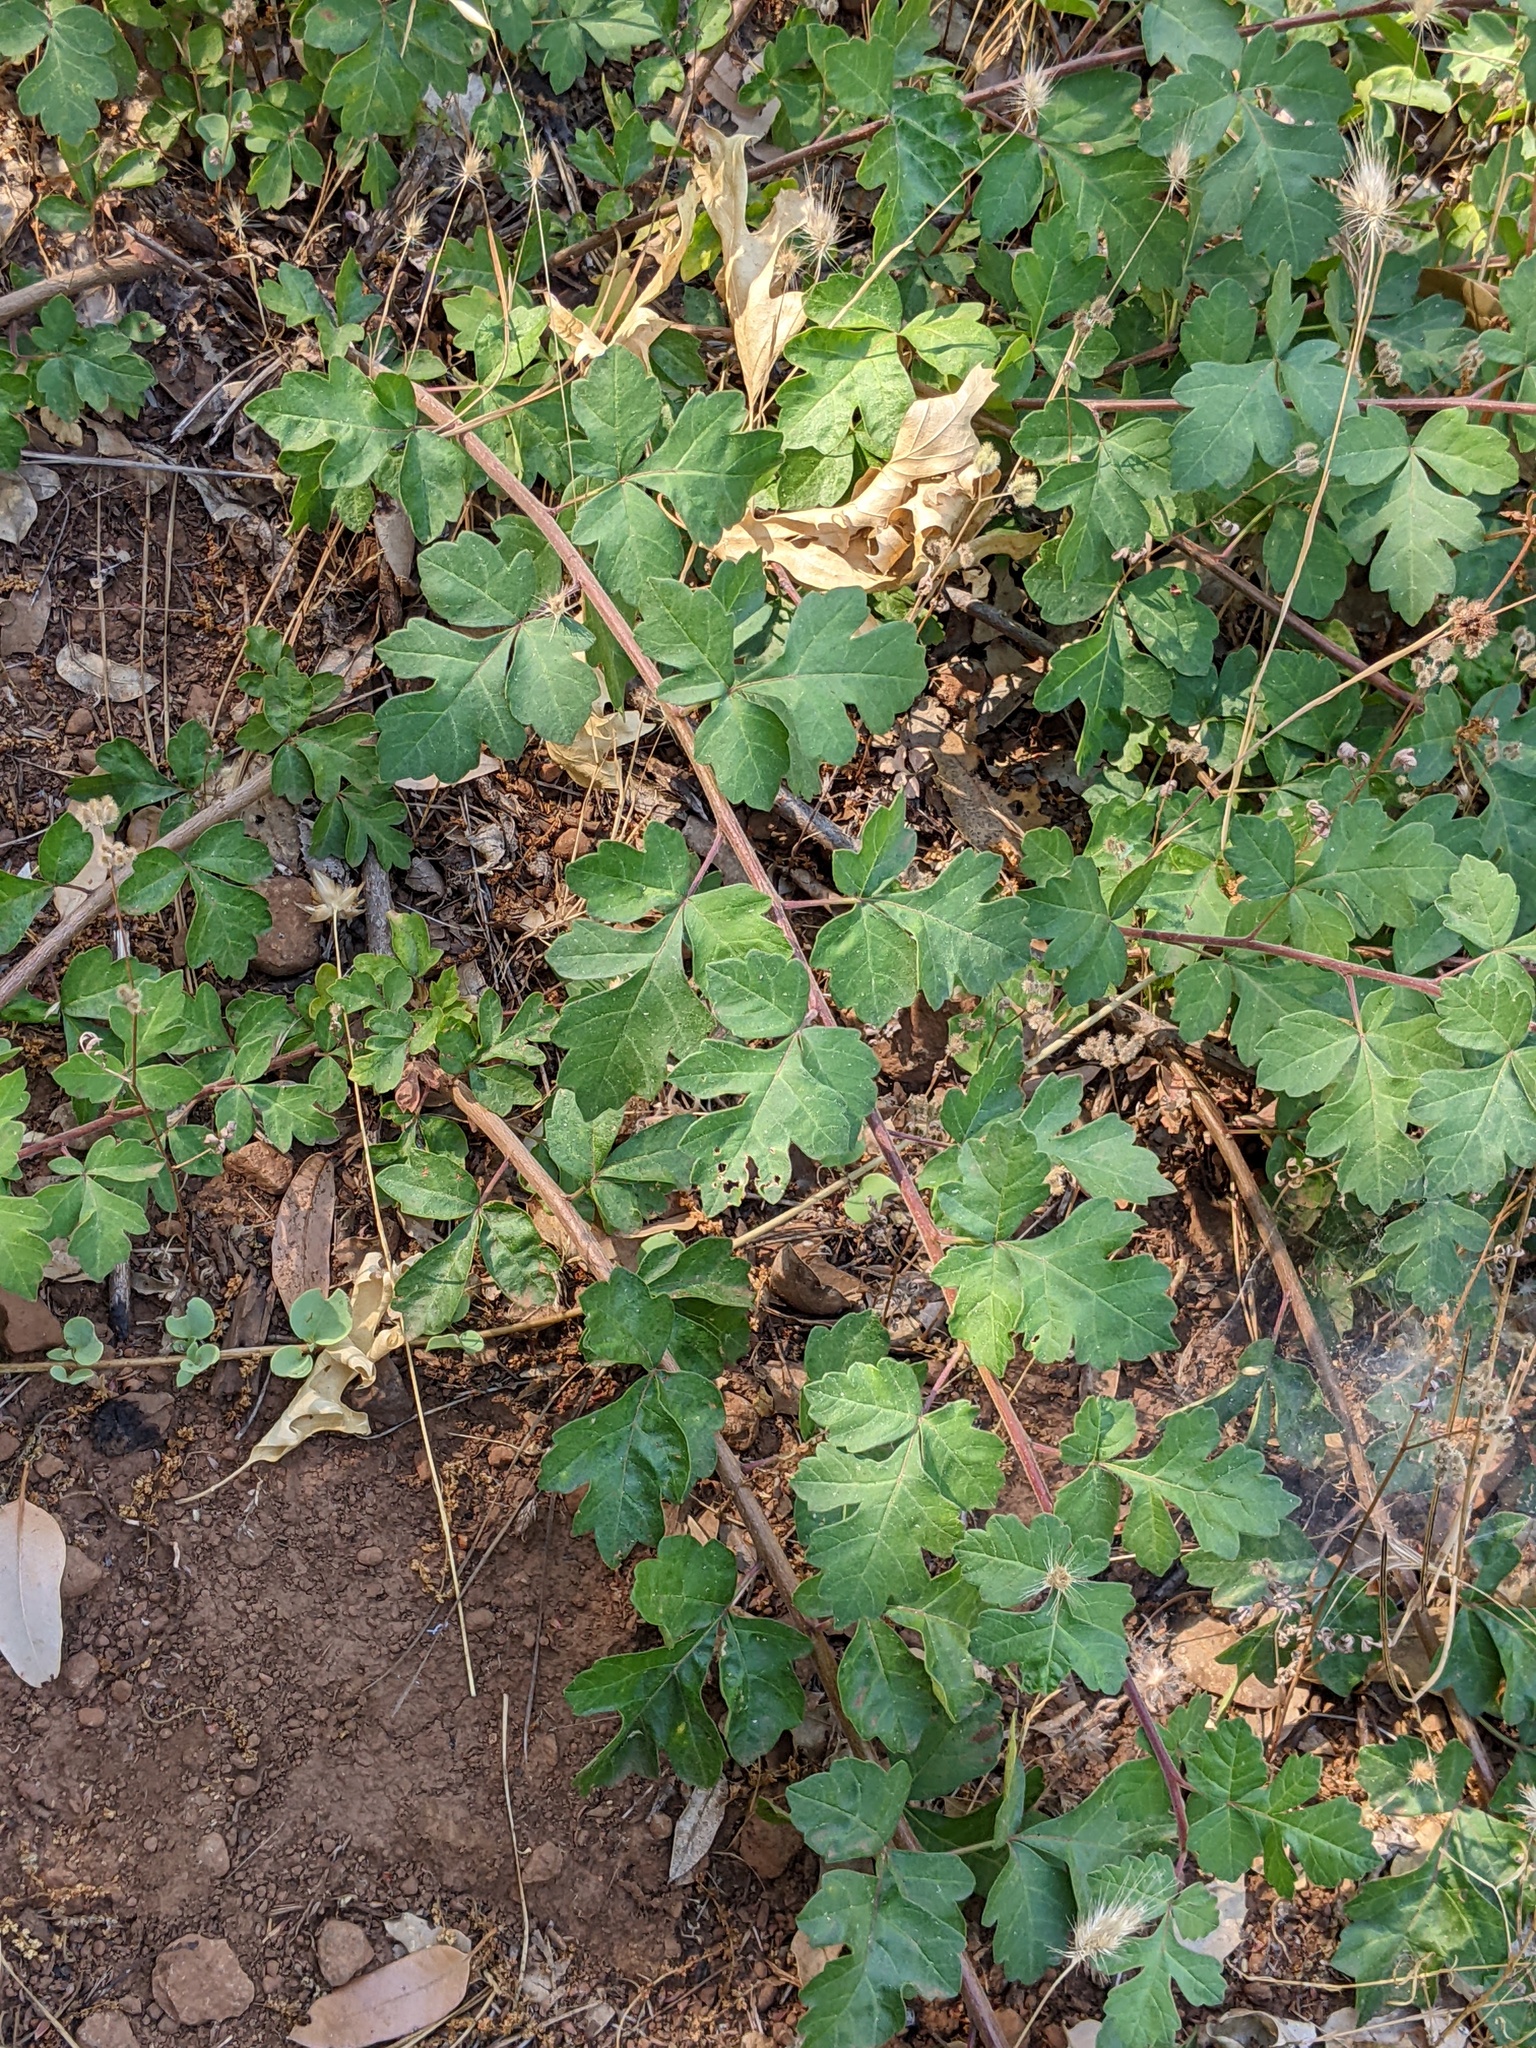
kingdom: Plantae
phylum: Tracheophyta
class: Magnoliopsida
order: Sapindales
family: Anacardiaceae
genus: Rhus
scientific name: Rhus aromatica
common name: Aromatic sumac
